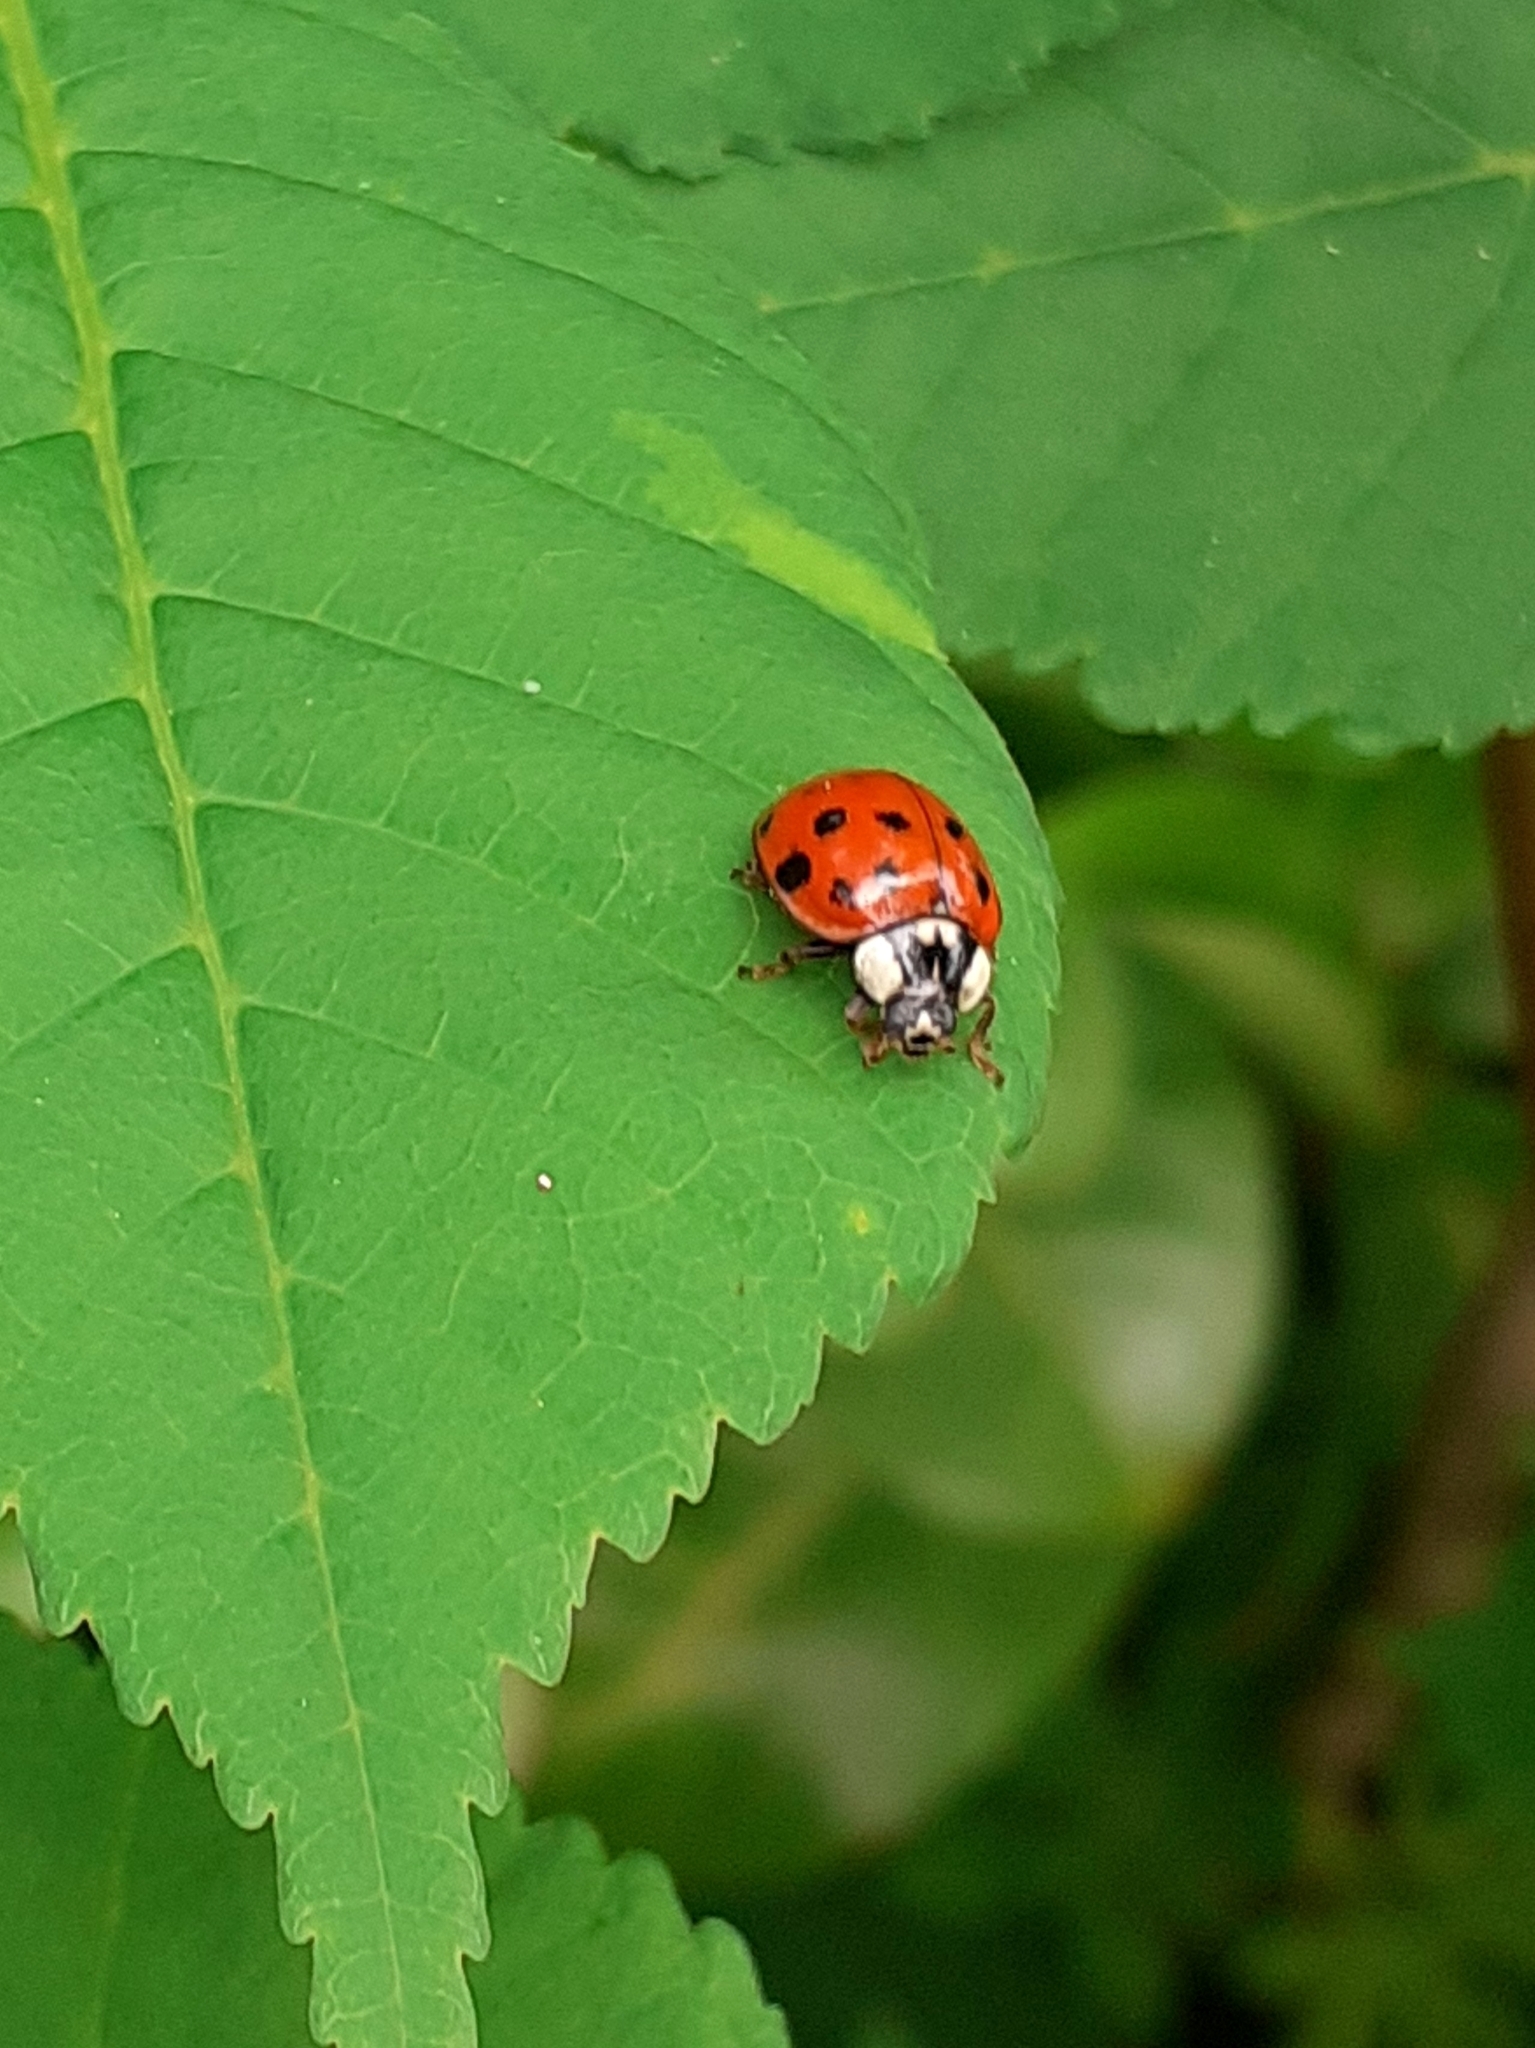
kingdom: Animalia
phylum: Arthropoda
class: Insecta
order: Coleoptera
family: Coccinellidae
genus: Harmonia
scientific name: Harmonia axyridis
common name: Harlequin ladybird
